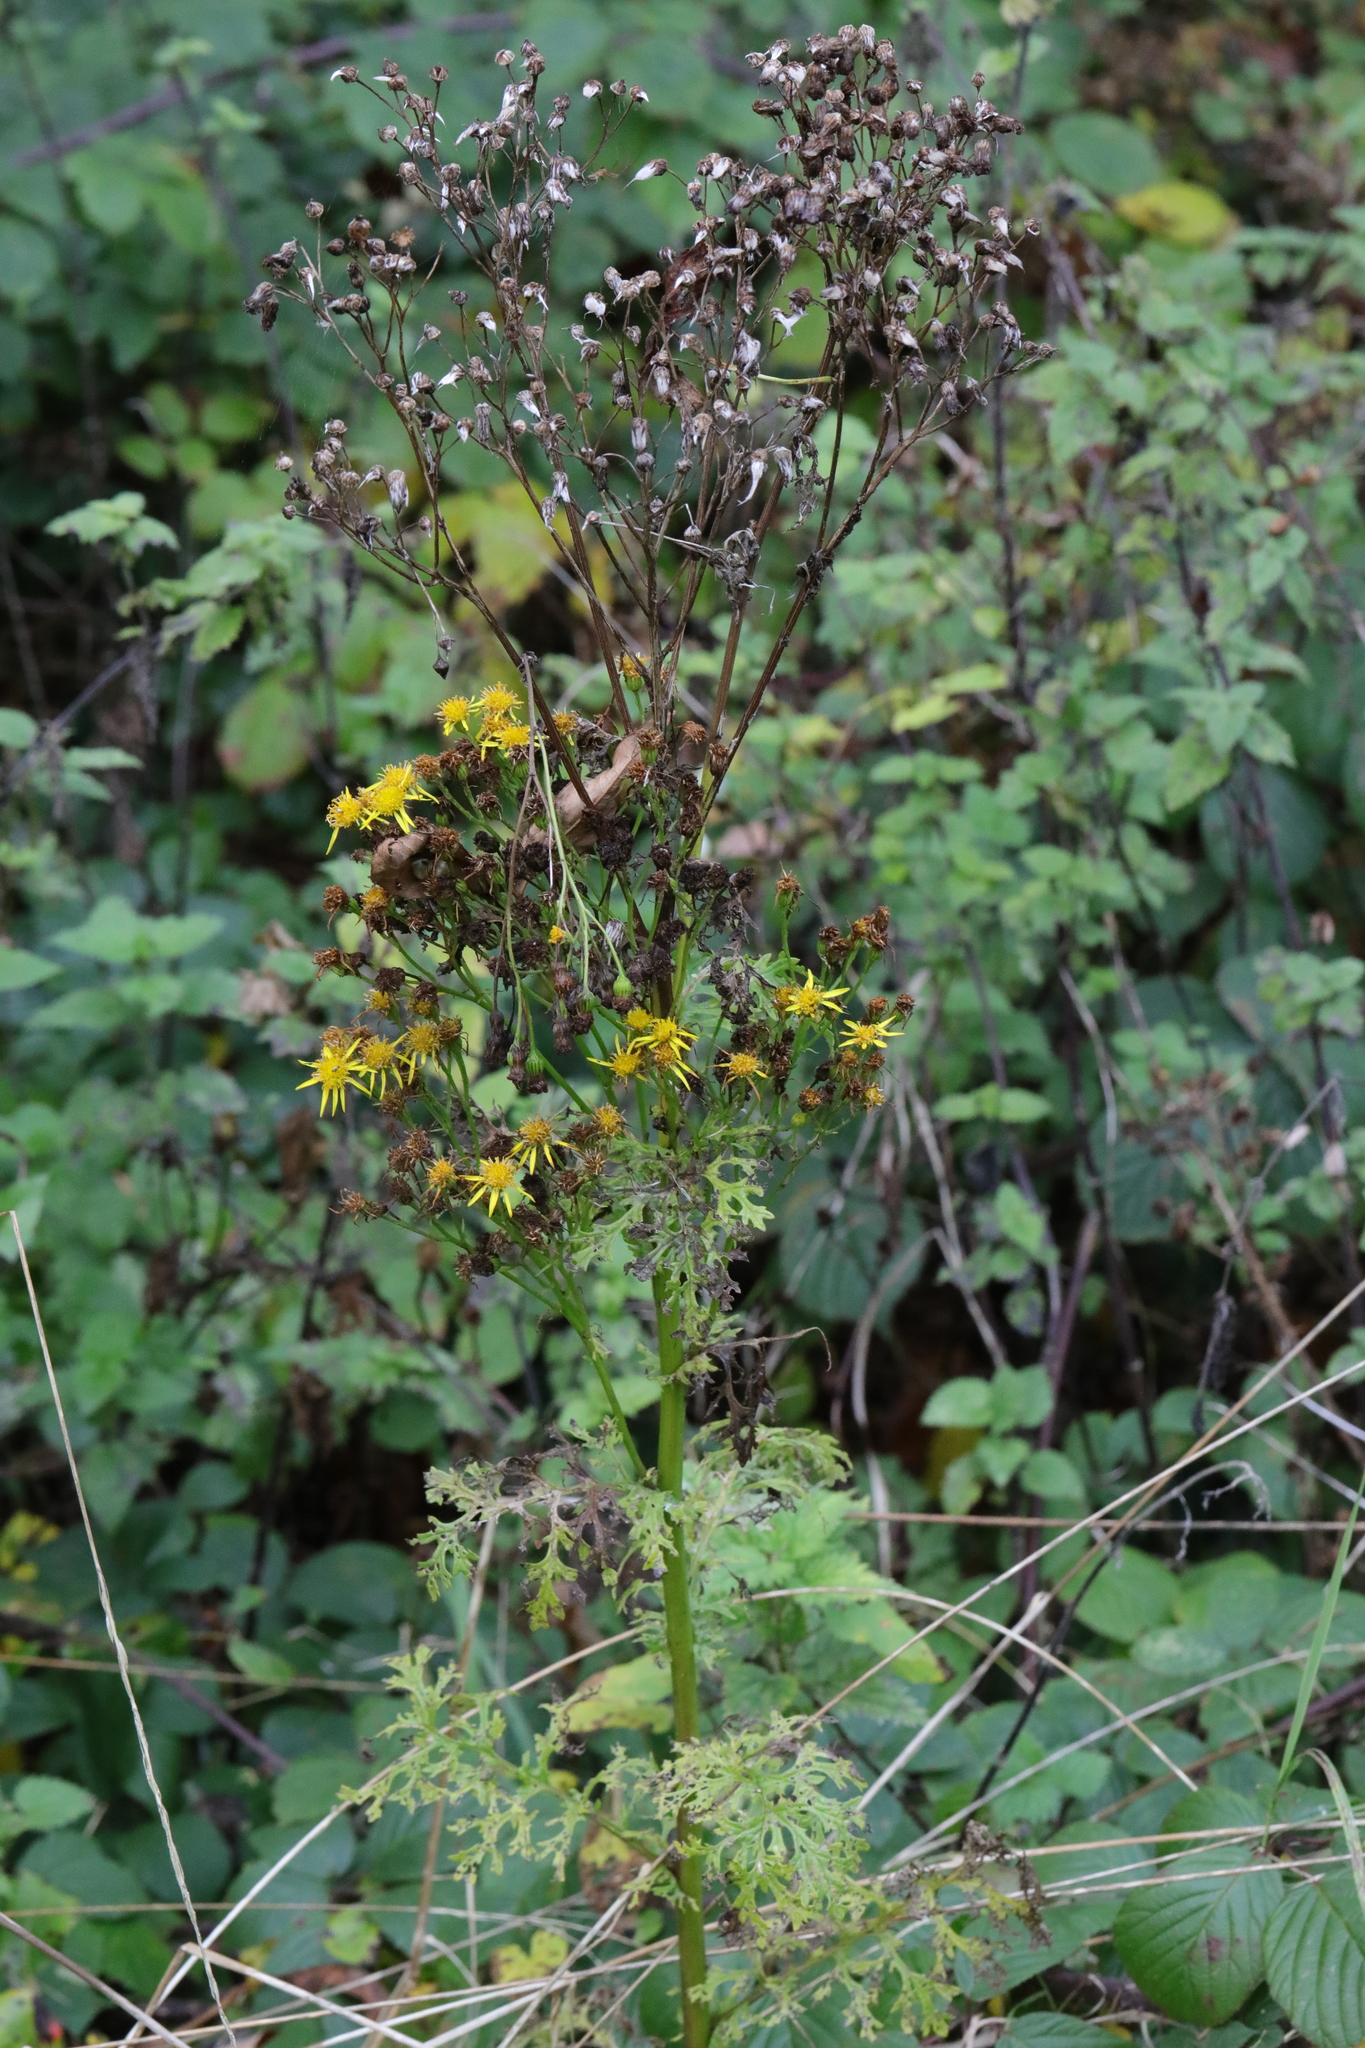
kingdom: Plantae
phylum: Tracheophyta
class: Magnoliopsida
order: Asterales
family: Asteraceae
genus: Jacobaea
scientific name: Jacobaea vulgaris
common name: Stinking willie
